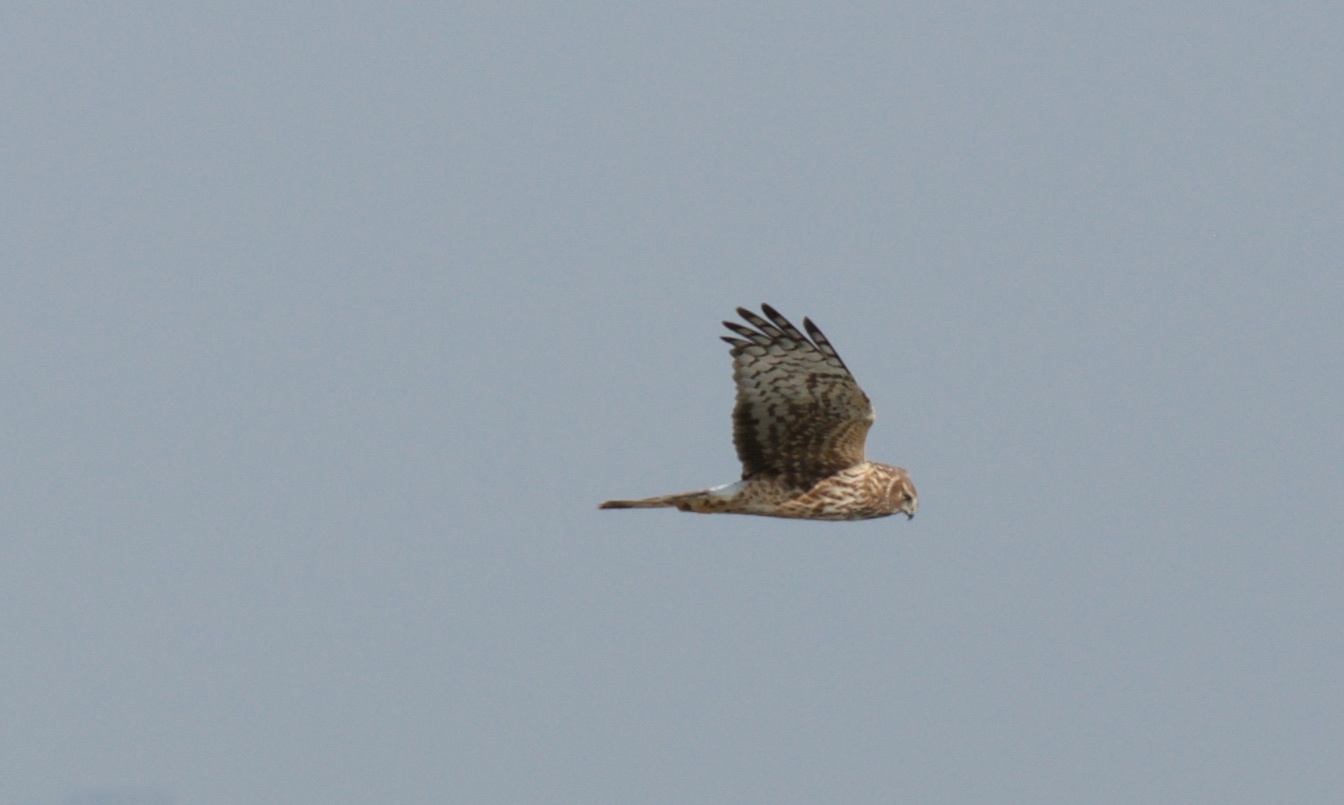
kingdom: Animalia
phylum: Chordata
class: Aves
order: Accipitriformes
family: Accipitridae
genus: Circus
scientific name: Circus cyaneus
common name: Hen harrier
